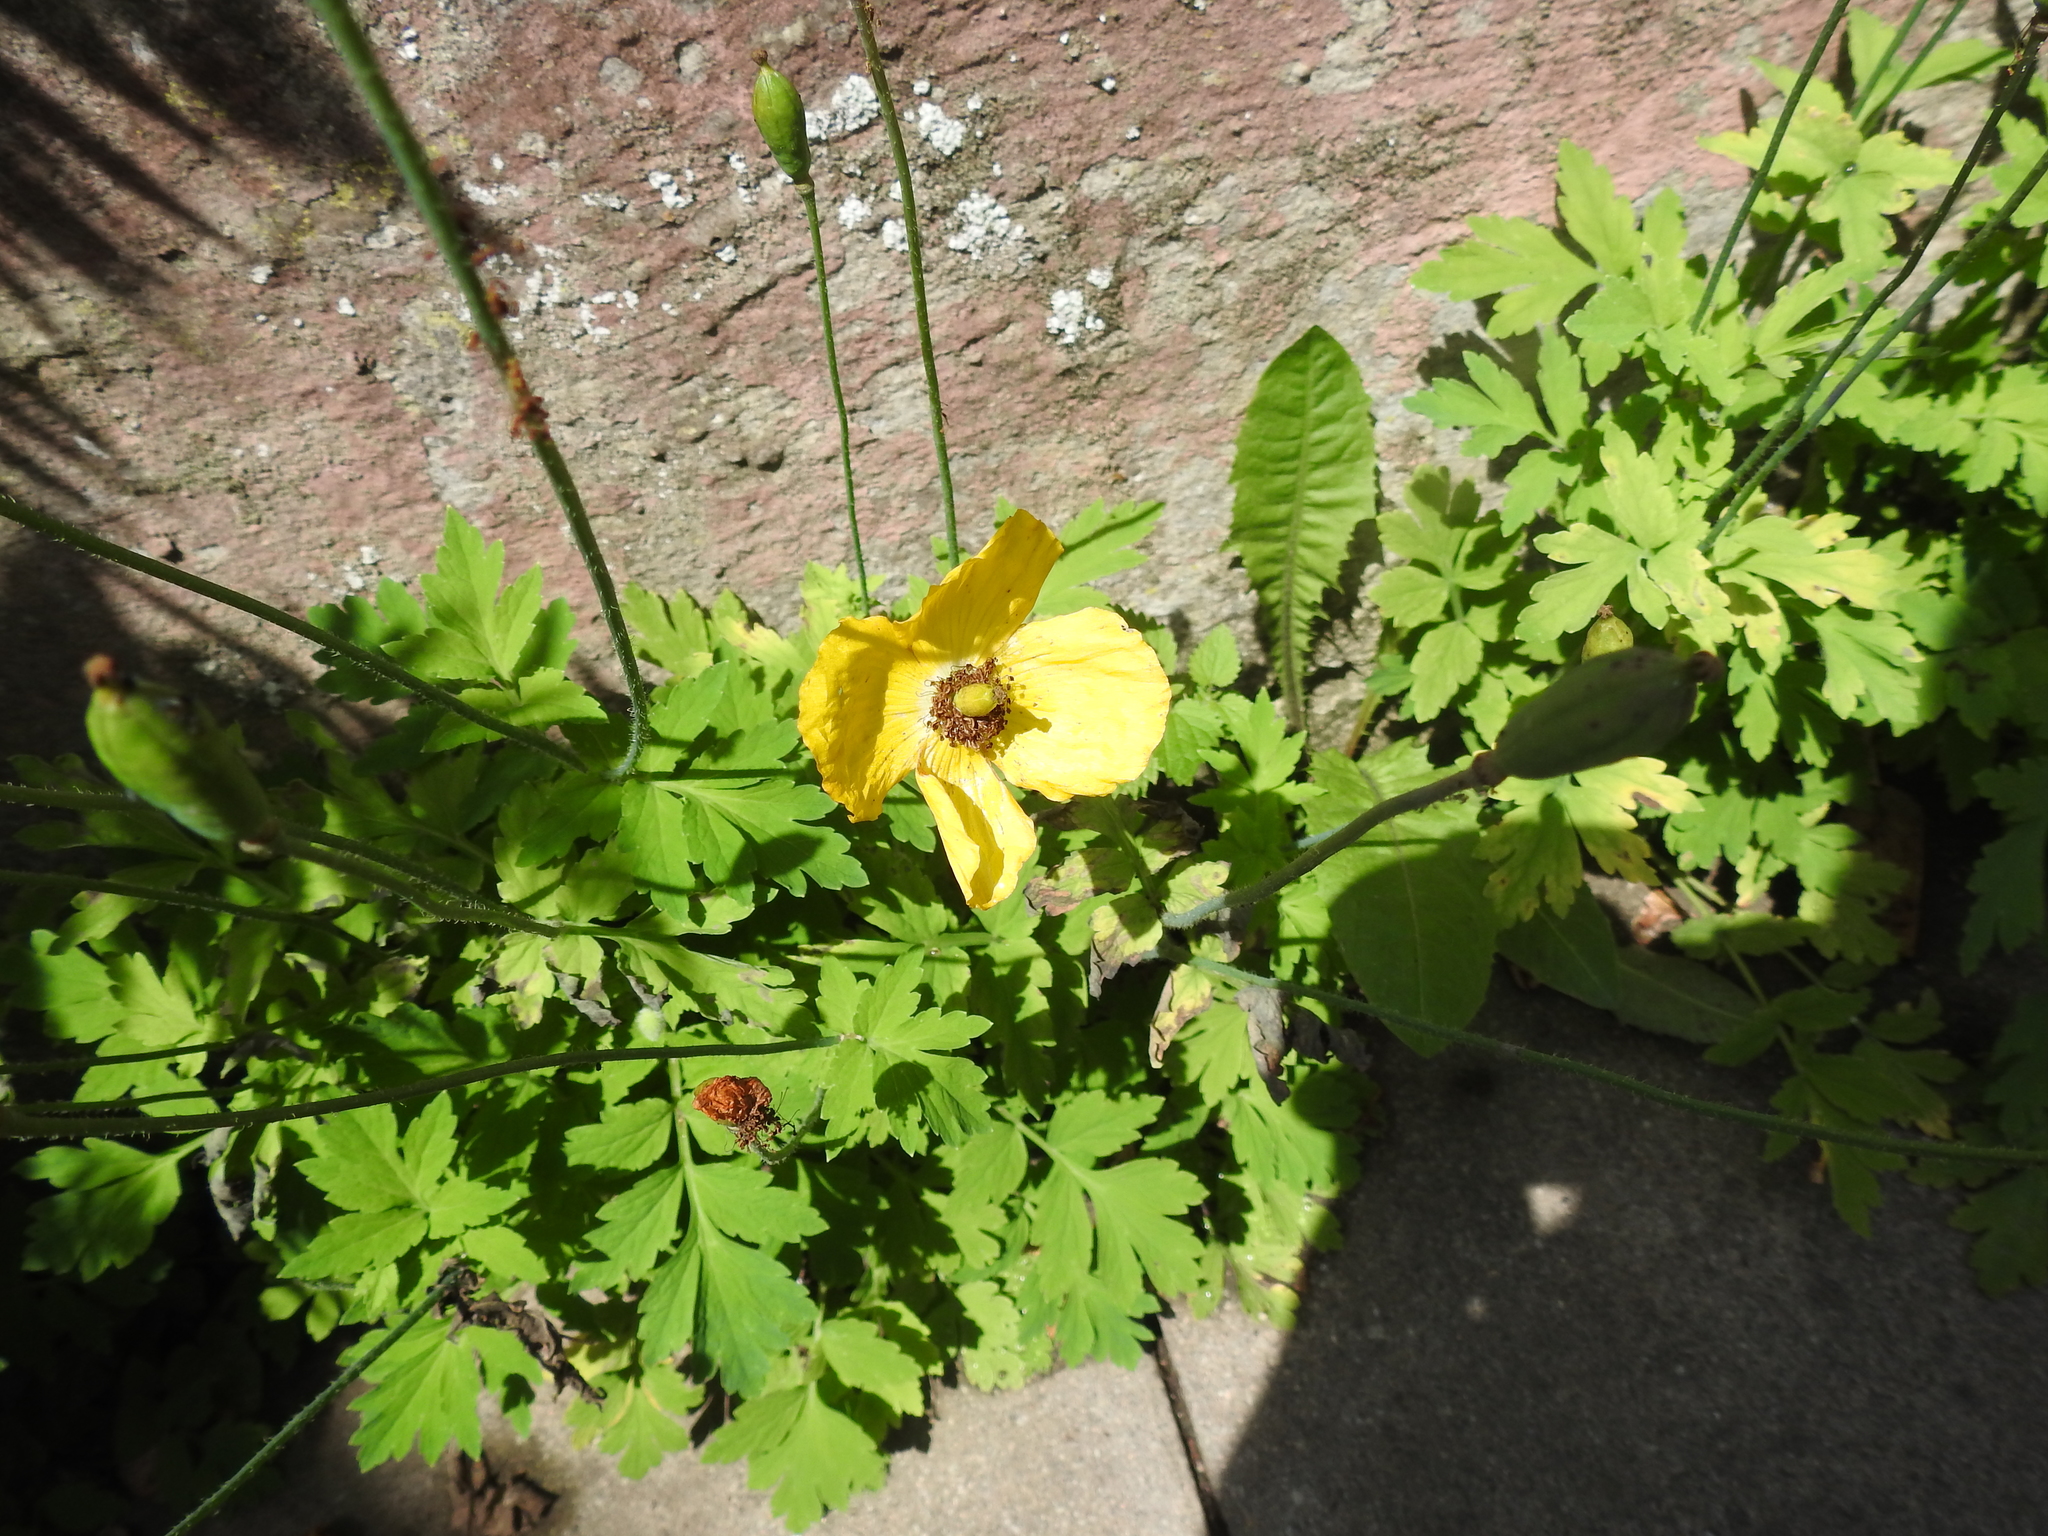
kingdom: Plantae
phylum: Tracheophyta
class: Magnoliopsida
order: Ranunculales
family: Papaveraceae
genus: Papaver
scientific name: Papaver cambricum
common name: Poppy
